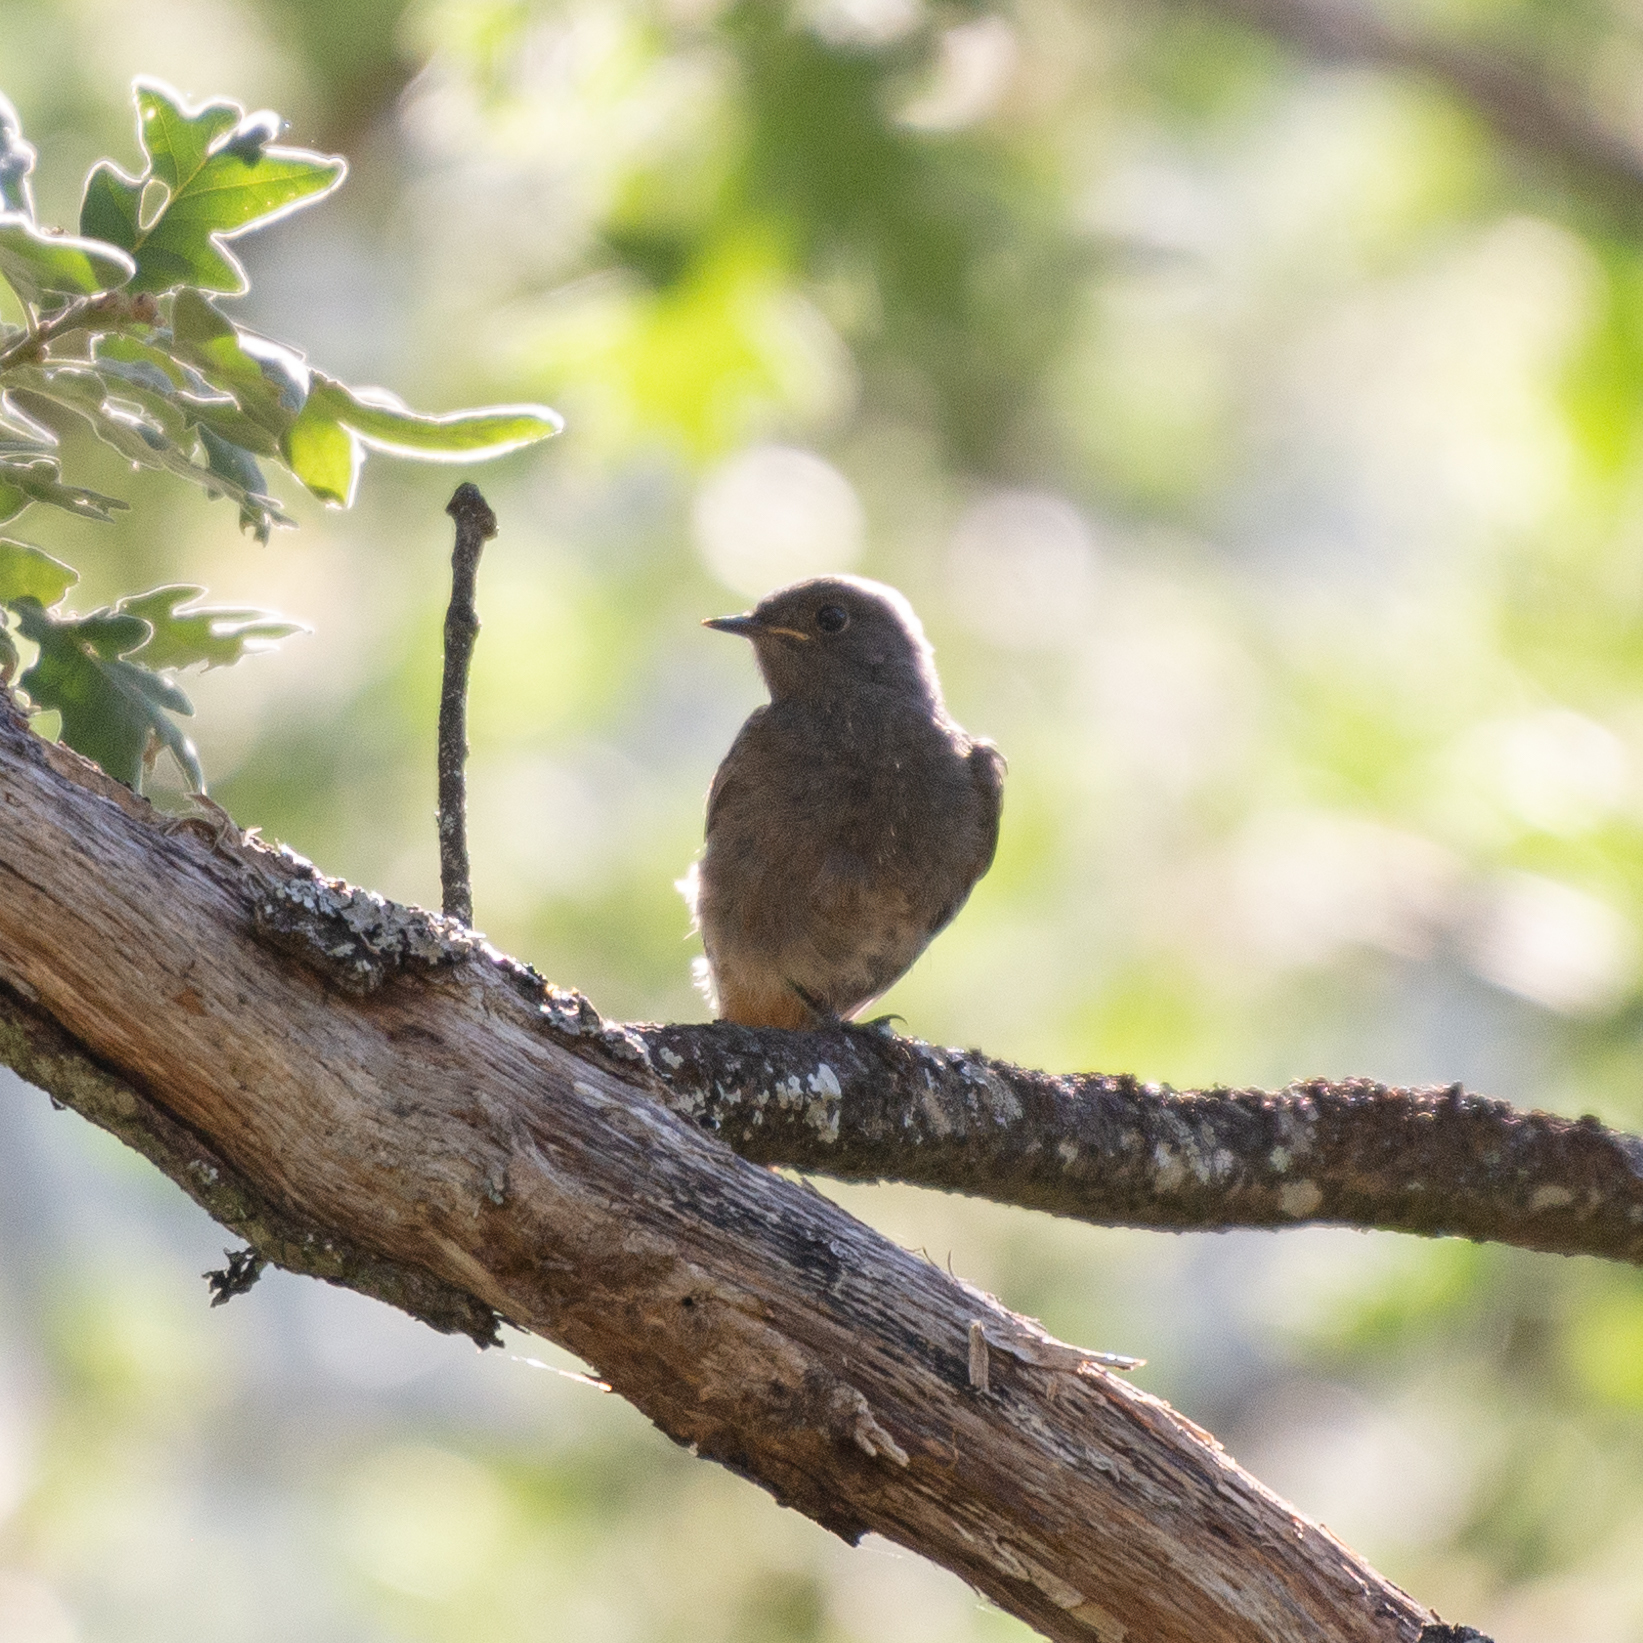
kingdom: Animalia
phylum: Chordata
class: Aves
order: Passeriformes
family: Muscicapidae
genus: Phoenicurus
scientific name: Phoenicurus ochruros
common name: Black redstart
